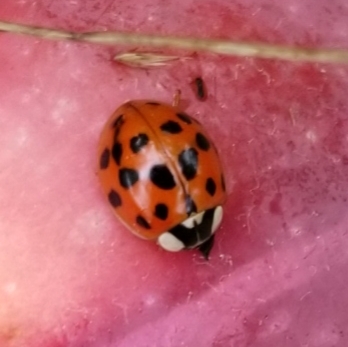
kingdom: Animalia
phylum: Arthropoda
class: Insecta
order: Coleoptera
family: Coccinellidae
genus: Harmonia
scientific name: Harmonia axyridis
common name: Harlequin ladybird
